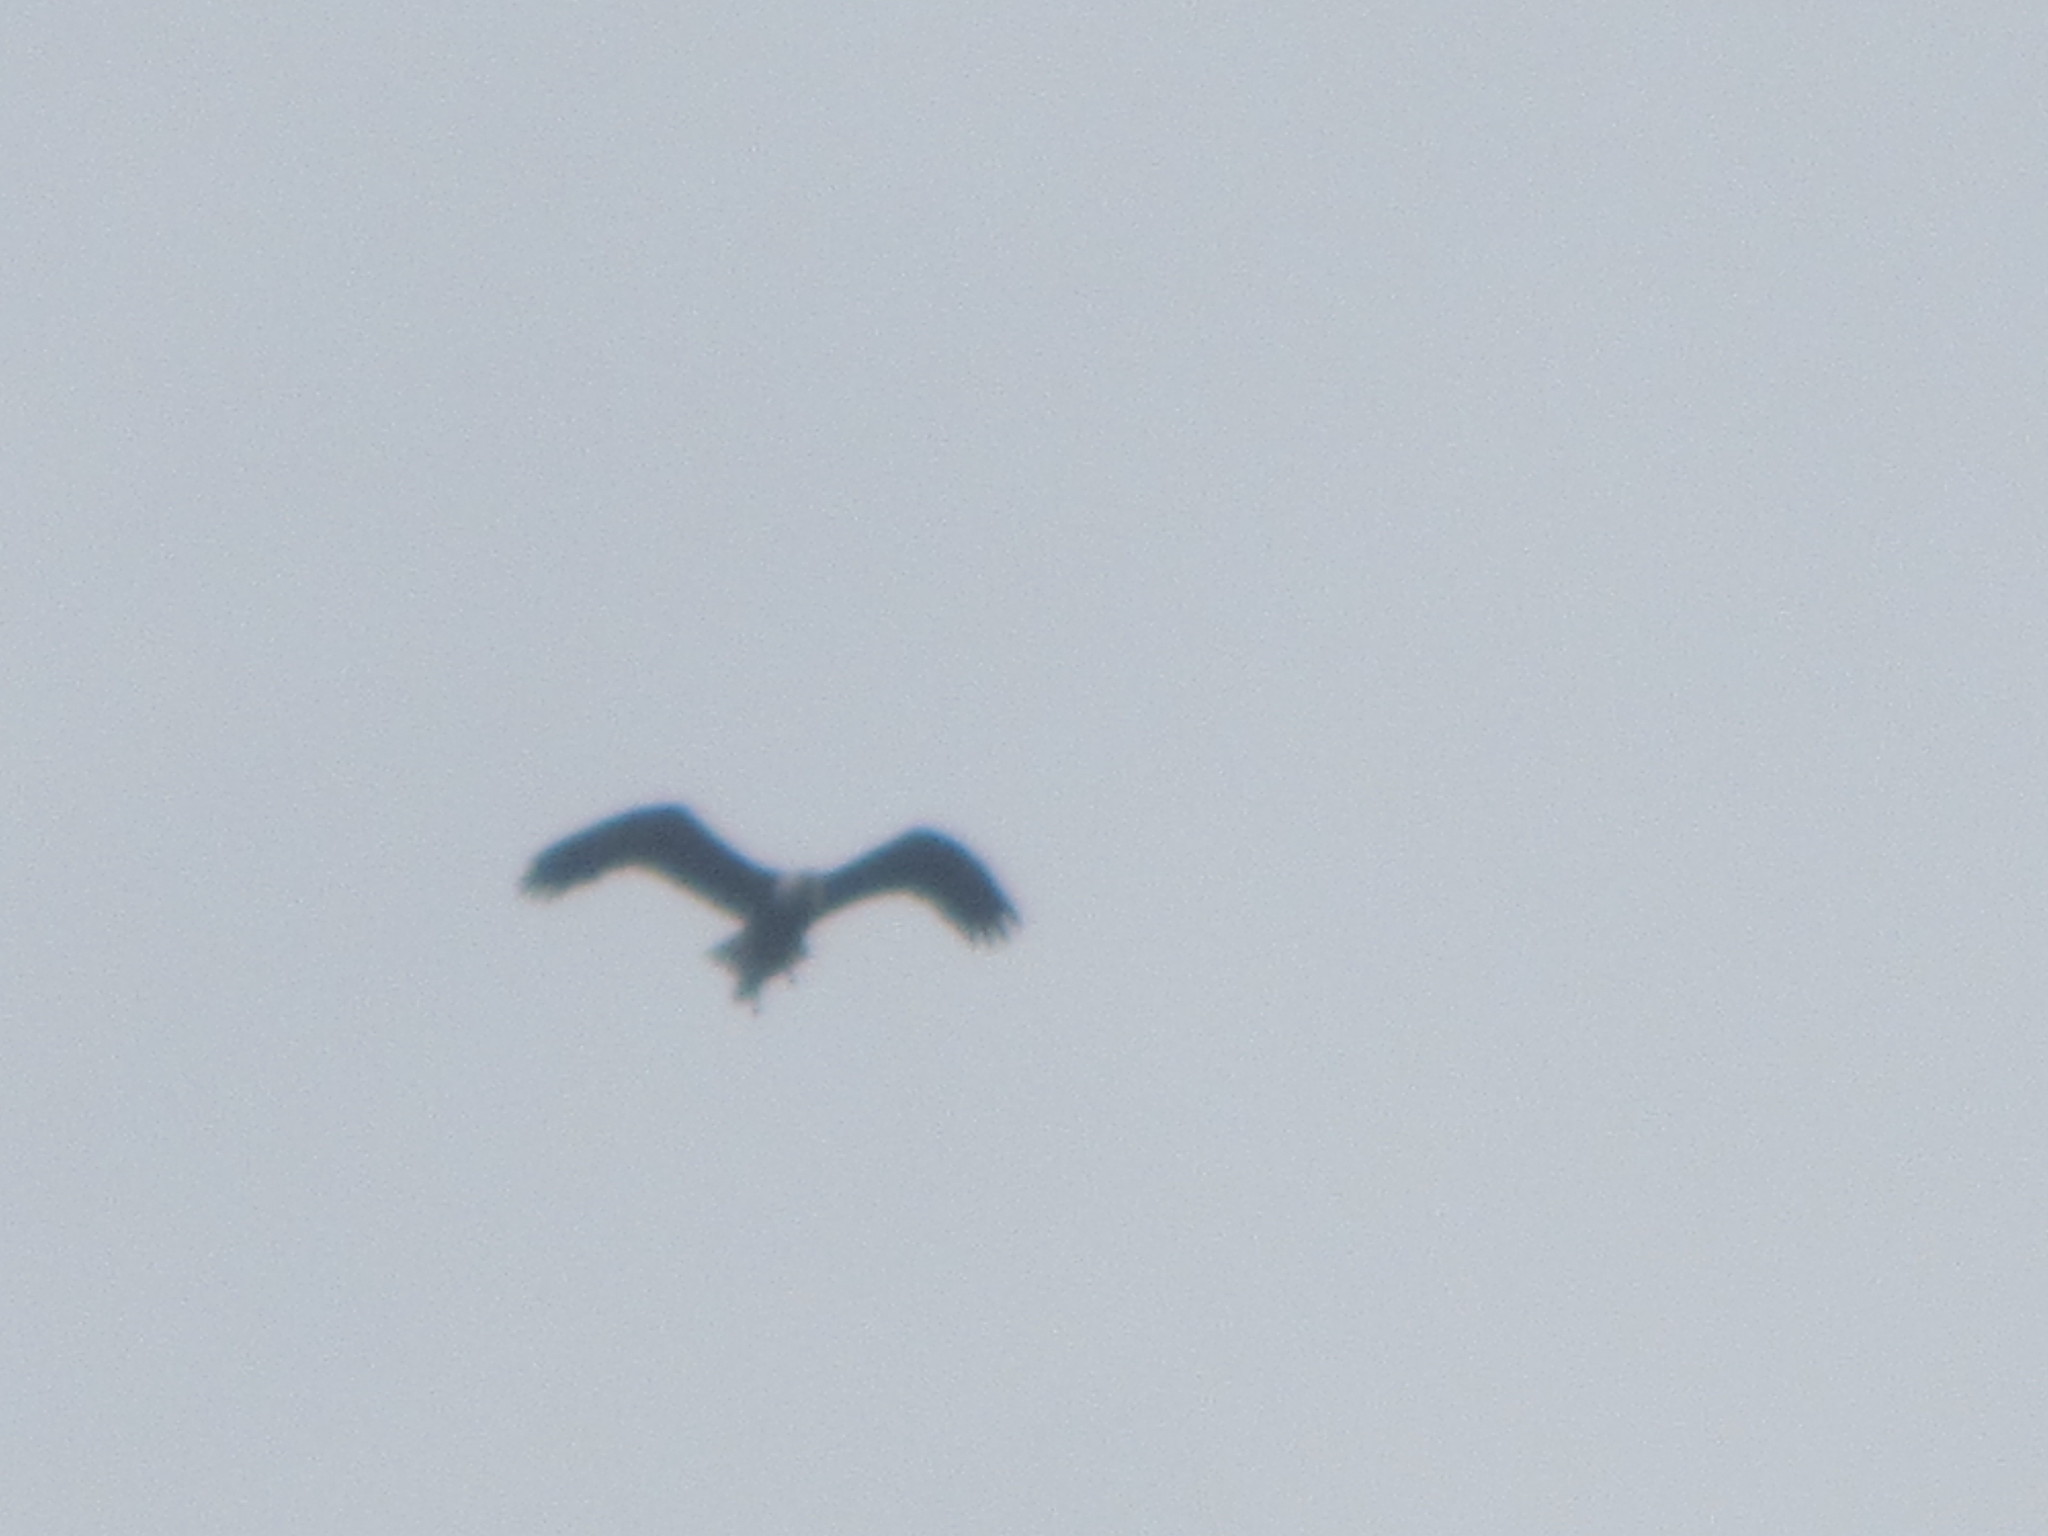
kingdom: Animalia
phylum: Chordata
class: Aves
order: Accipitriformes
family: Accipitridae
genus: Haliaeetus
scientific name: Haliaeetus leucocephalus
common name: Bald eagle
